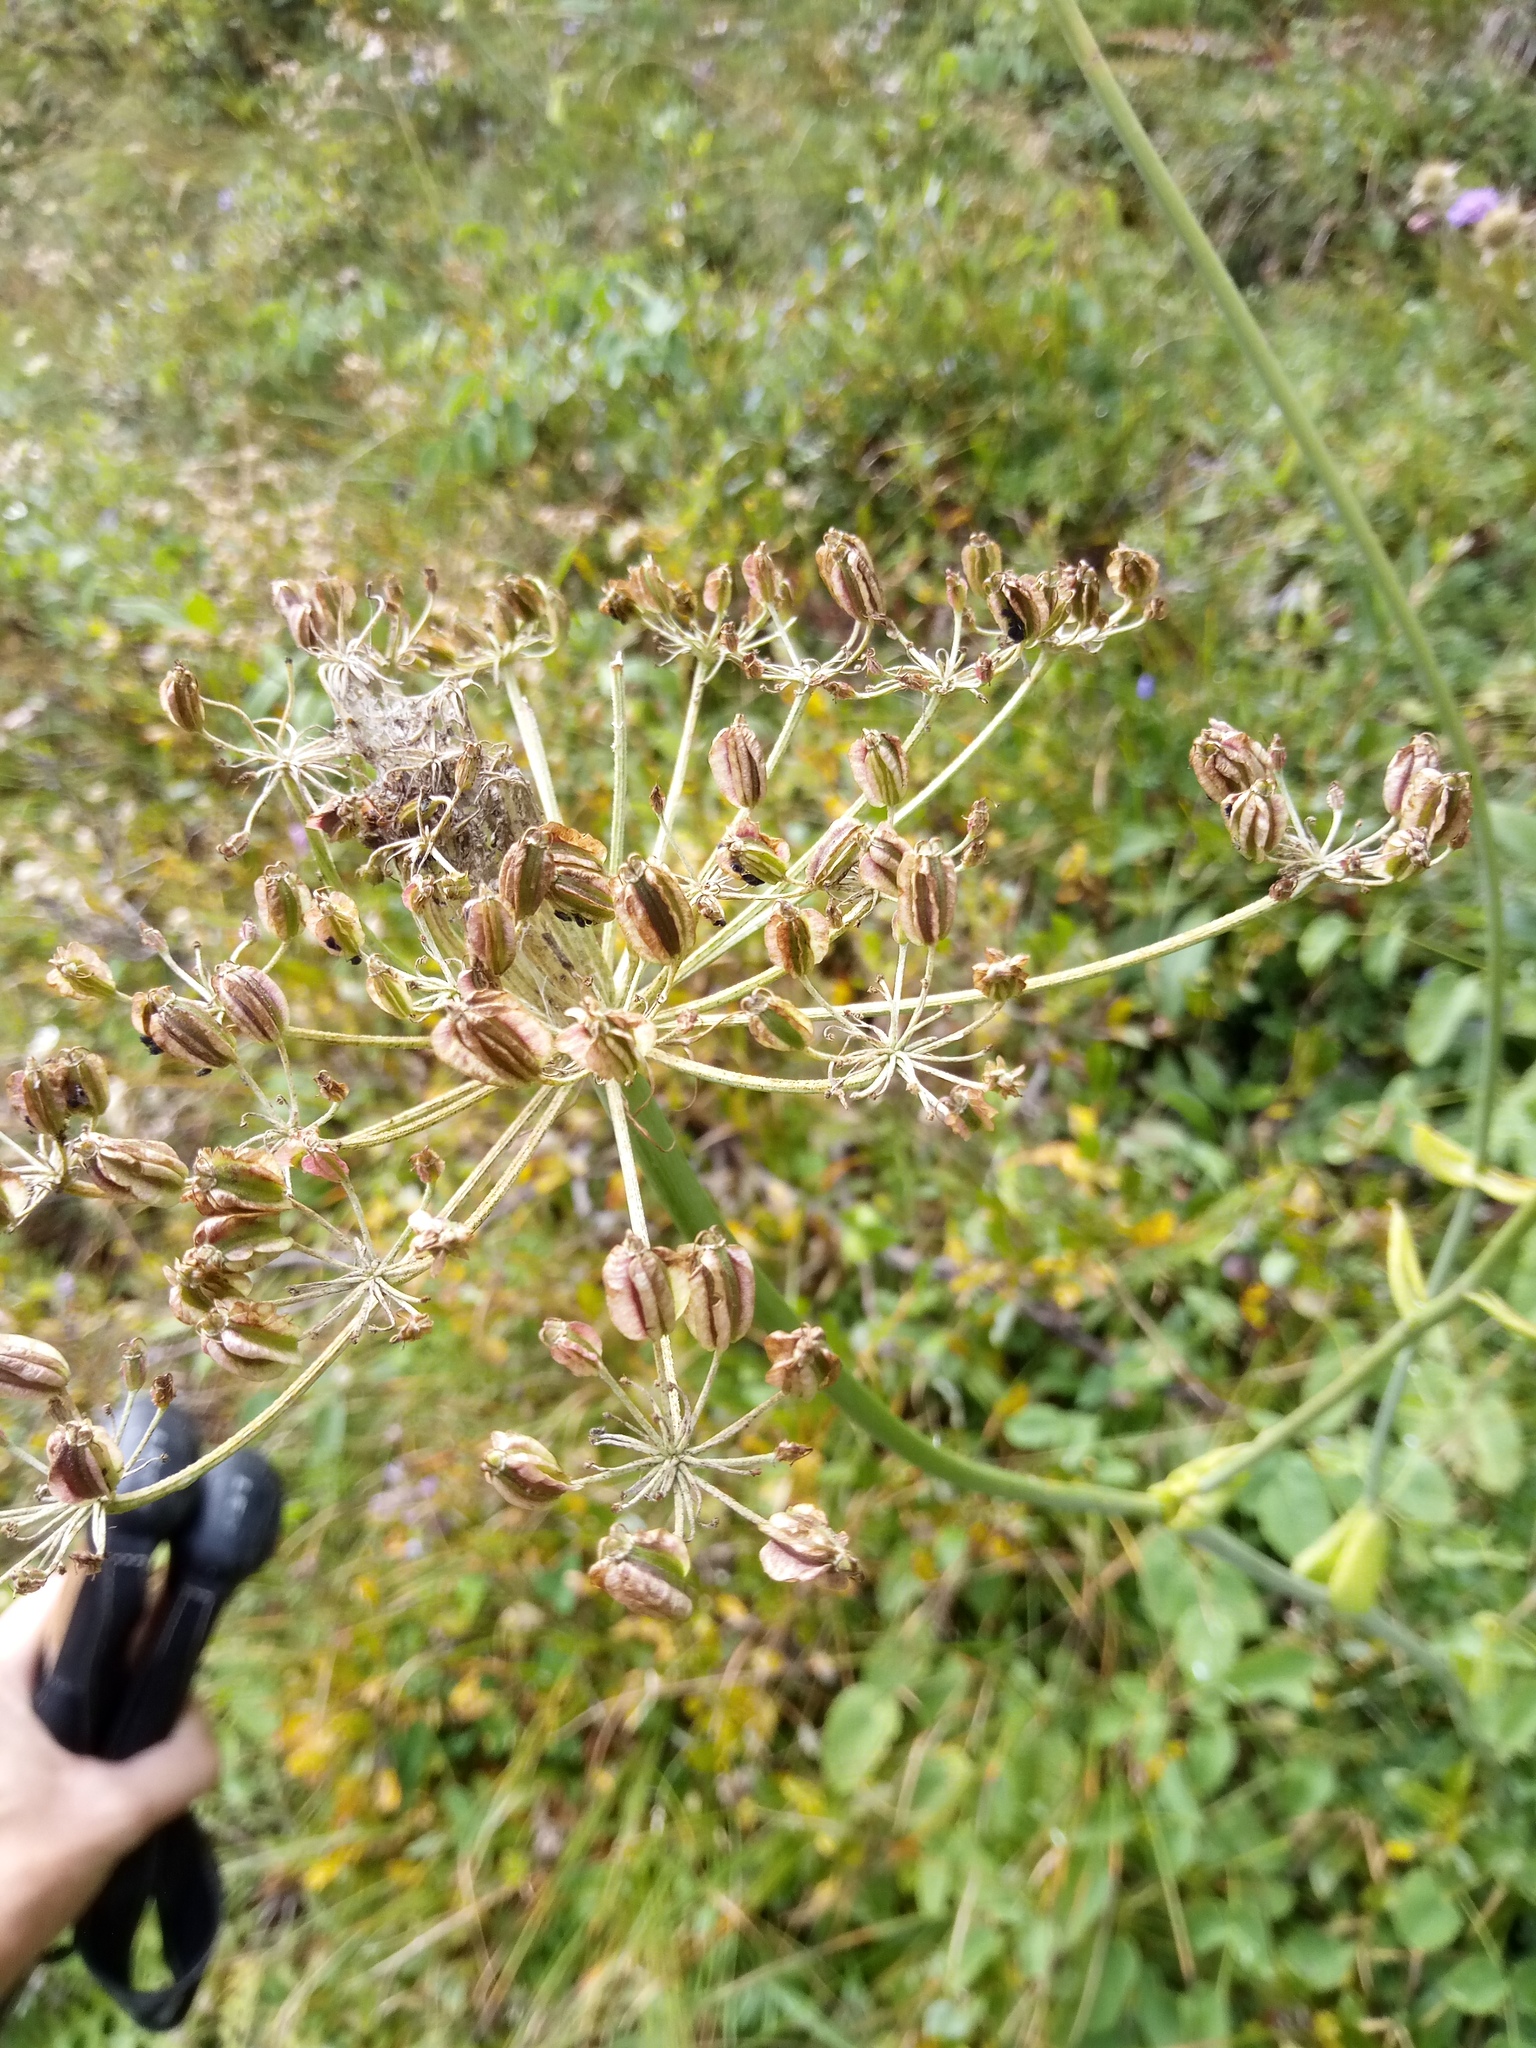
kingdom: Plantae
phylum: Tracheophyta
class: Magnoliopsida
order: Apiales
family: Apiaceae
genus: Laserpitium
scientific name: Laserpitium latifolium
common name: Broadleaf sermountain
